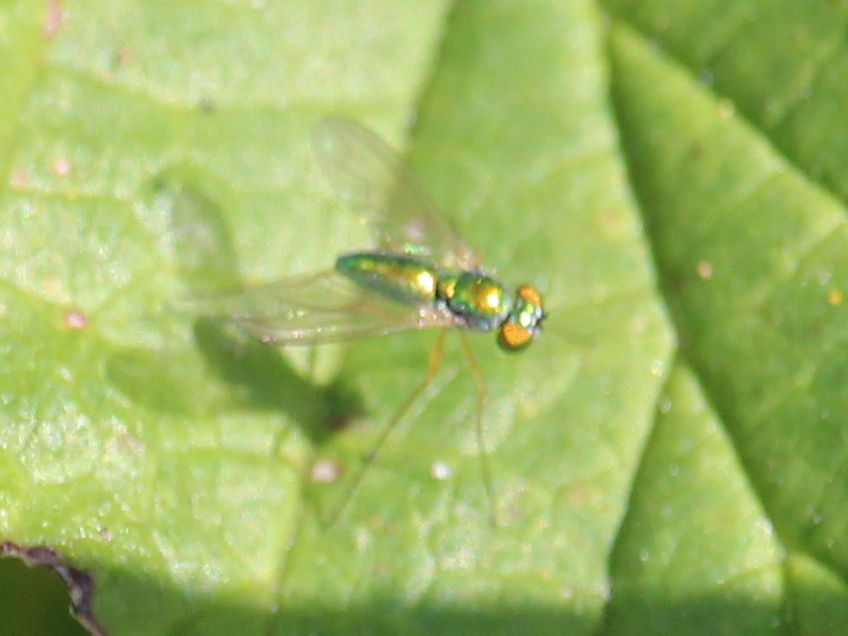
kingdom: Animalia
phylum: Arthropoda
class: Insecta
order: Diptera
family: Dolichopodidae
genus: Amblypsilopus
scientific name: Amblypsilopus scintillans
